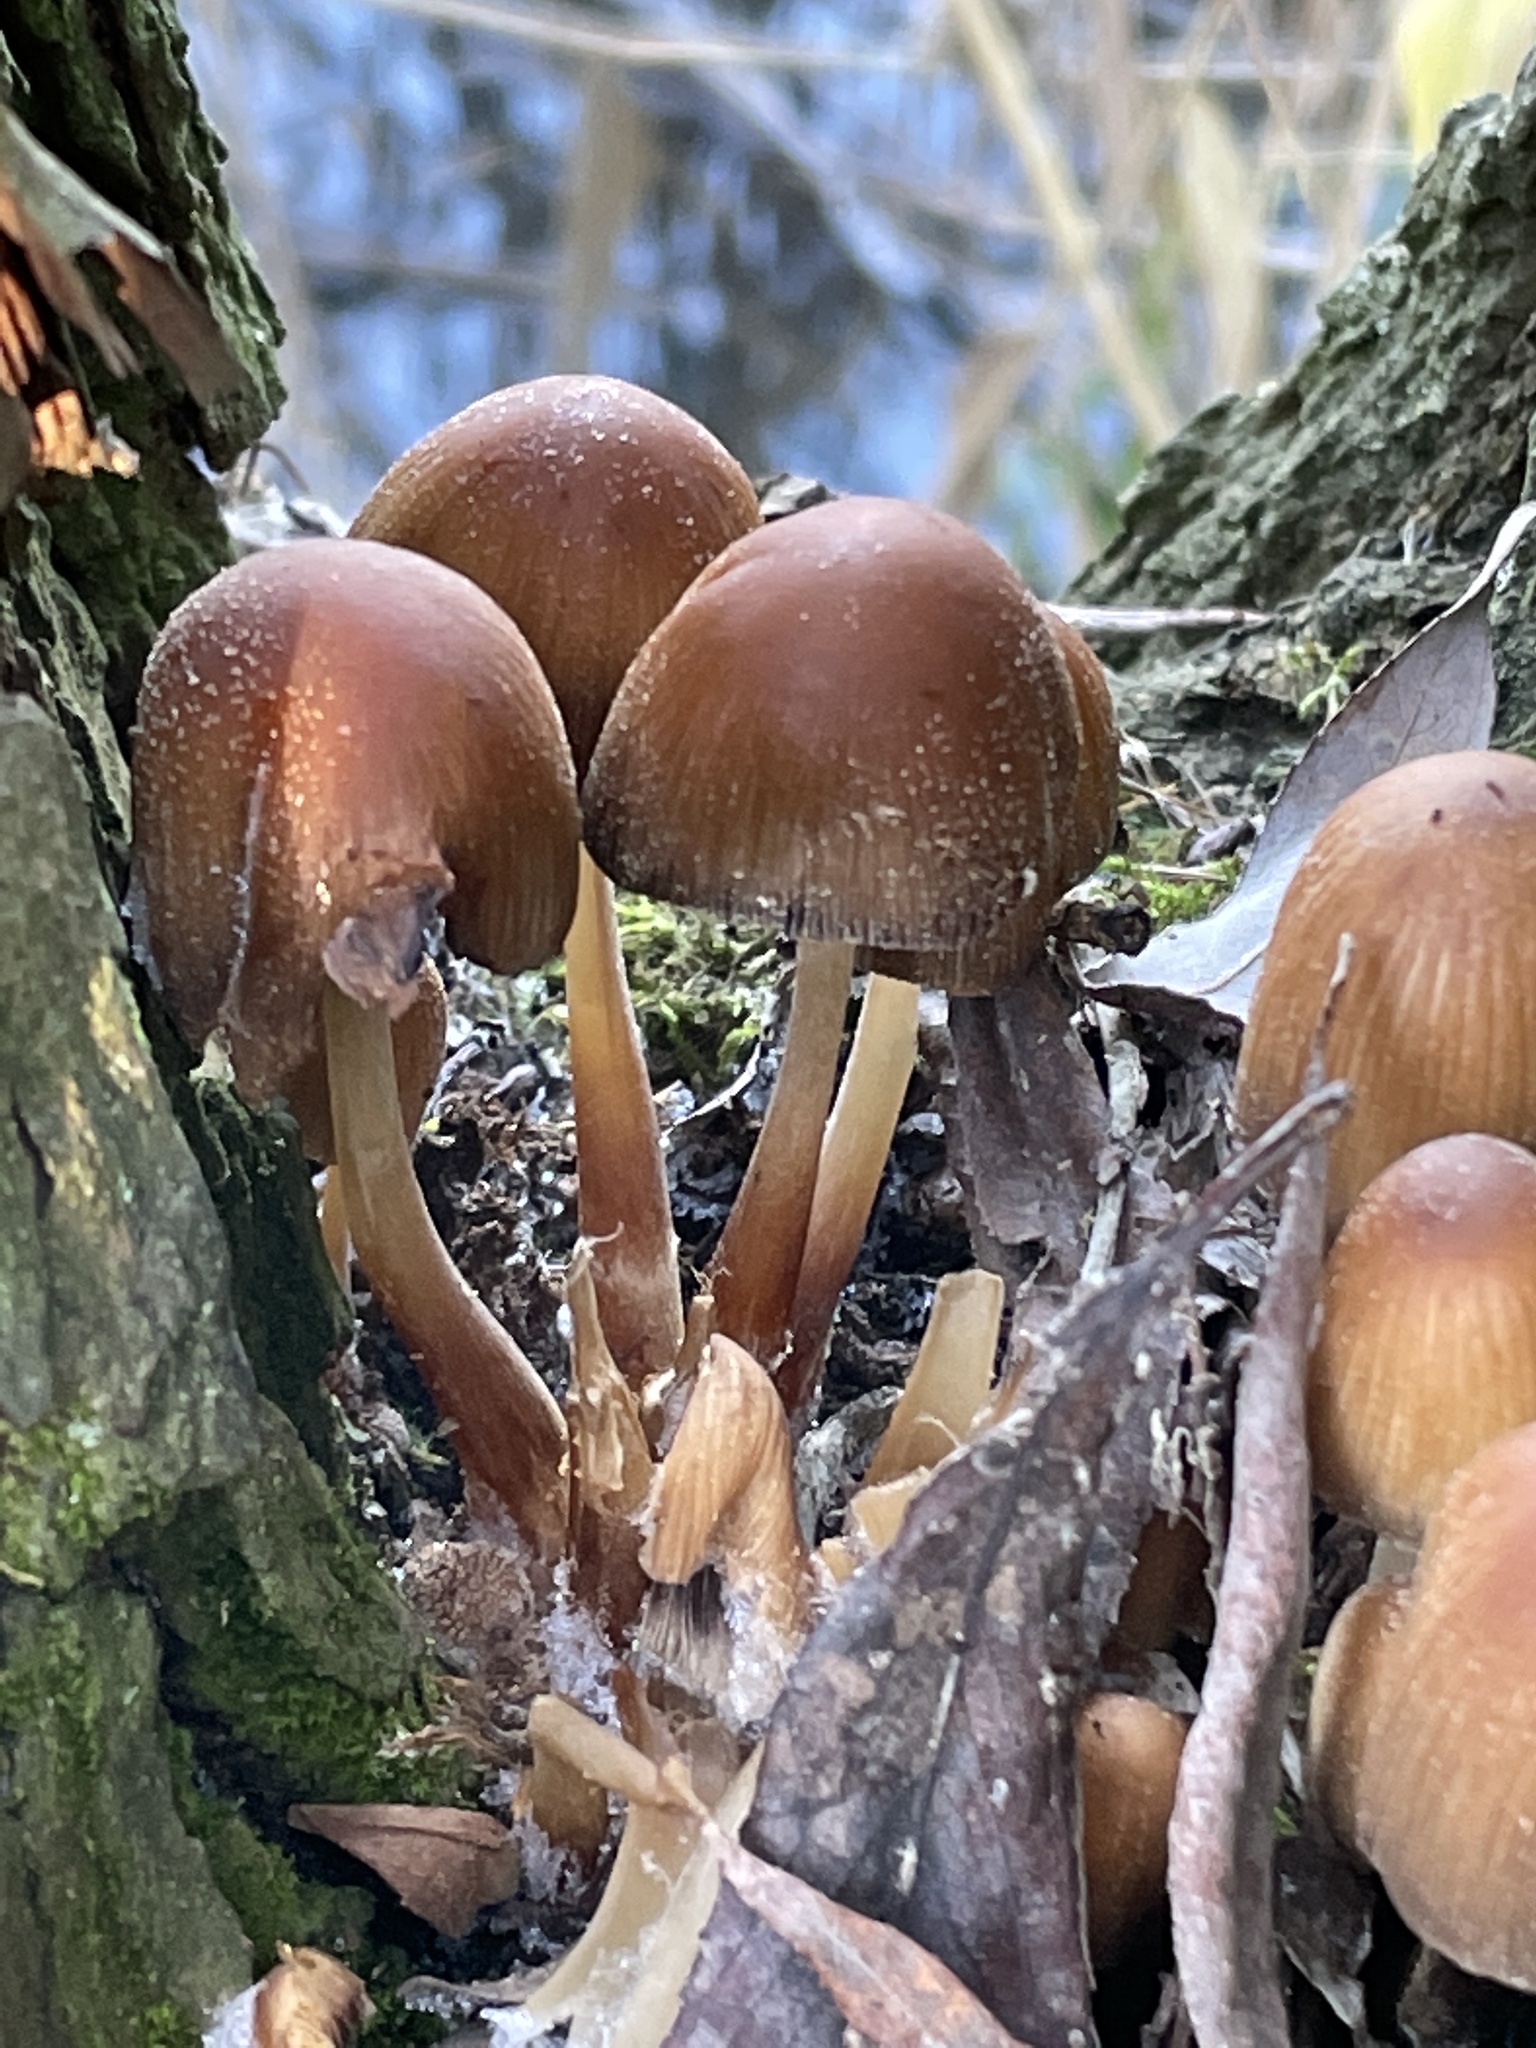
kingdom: Fungi
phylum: Basidiomycota
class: Agaricomycetes
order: Agaricales
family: Psathyrellaceae
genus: Coprinellus
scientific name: Coprinellus
